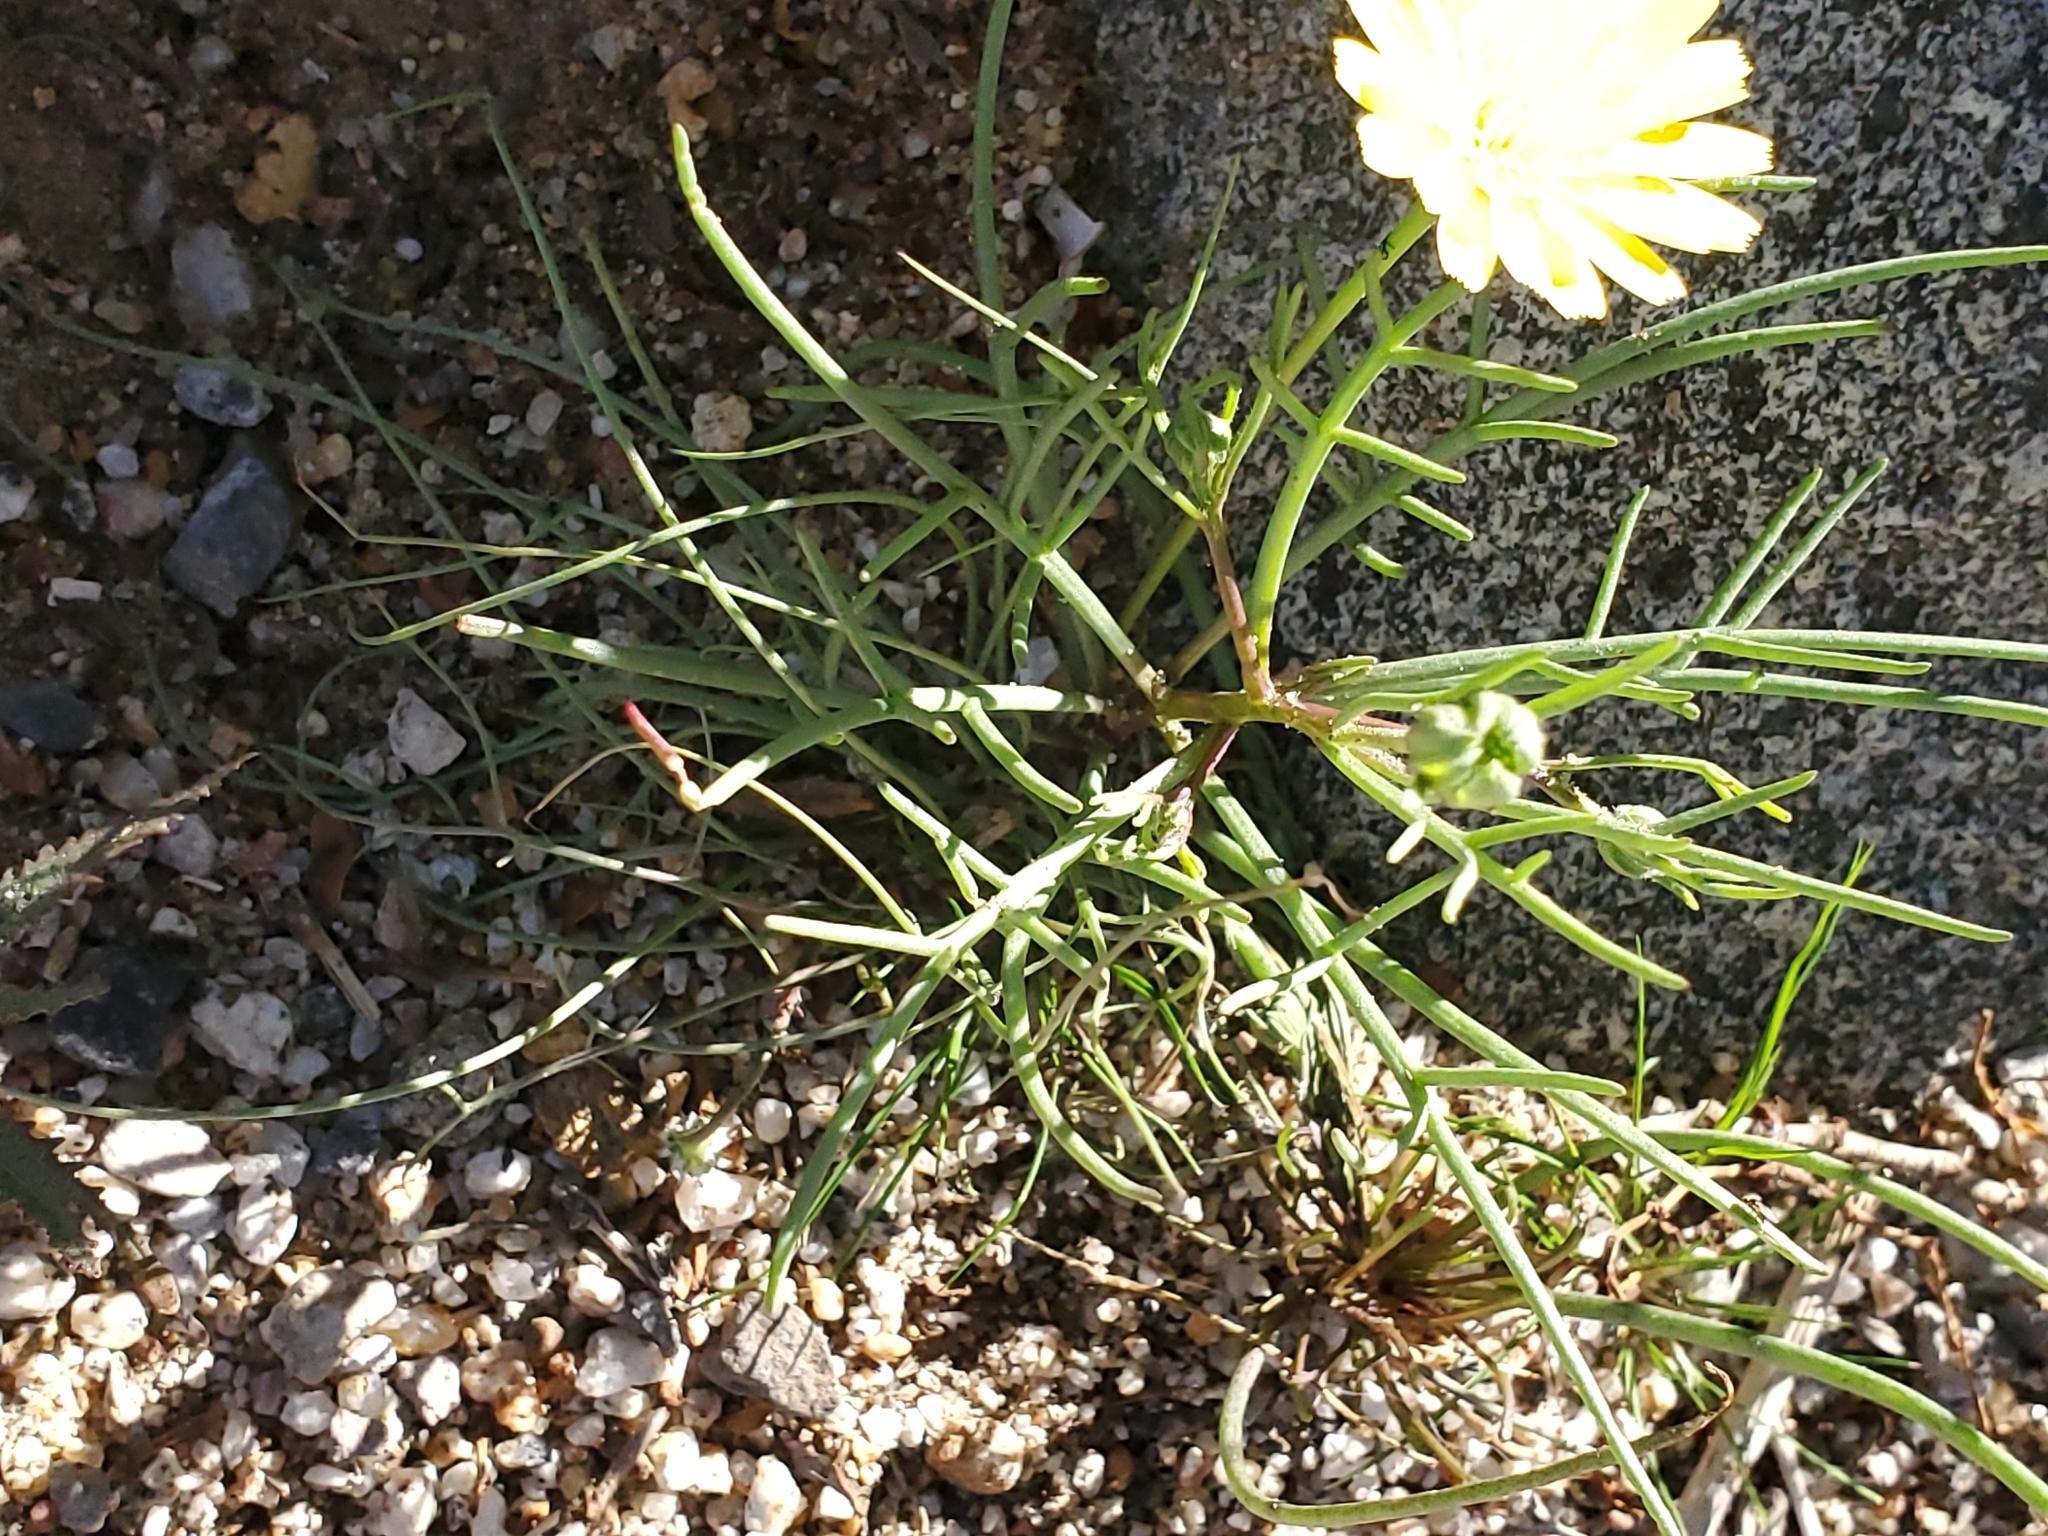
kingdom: Plantae
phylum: Tracheophyta
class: Magnoliopsida
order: Asterales
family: Asteraceae
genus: Malacothrix
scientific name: Malacothrix glabrata
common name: Smooth desert-dandelion
